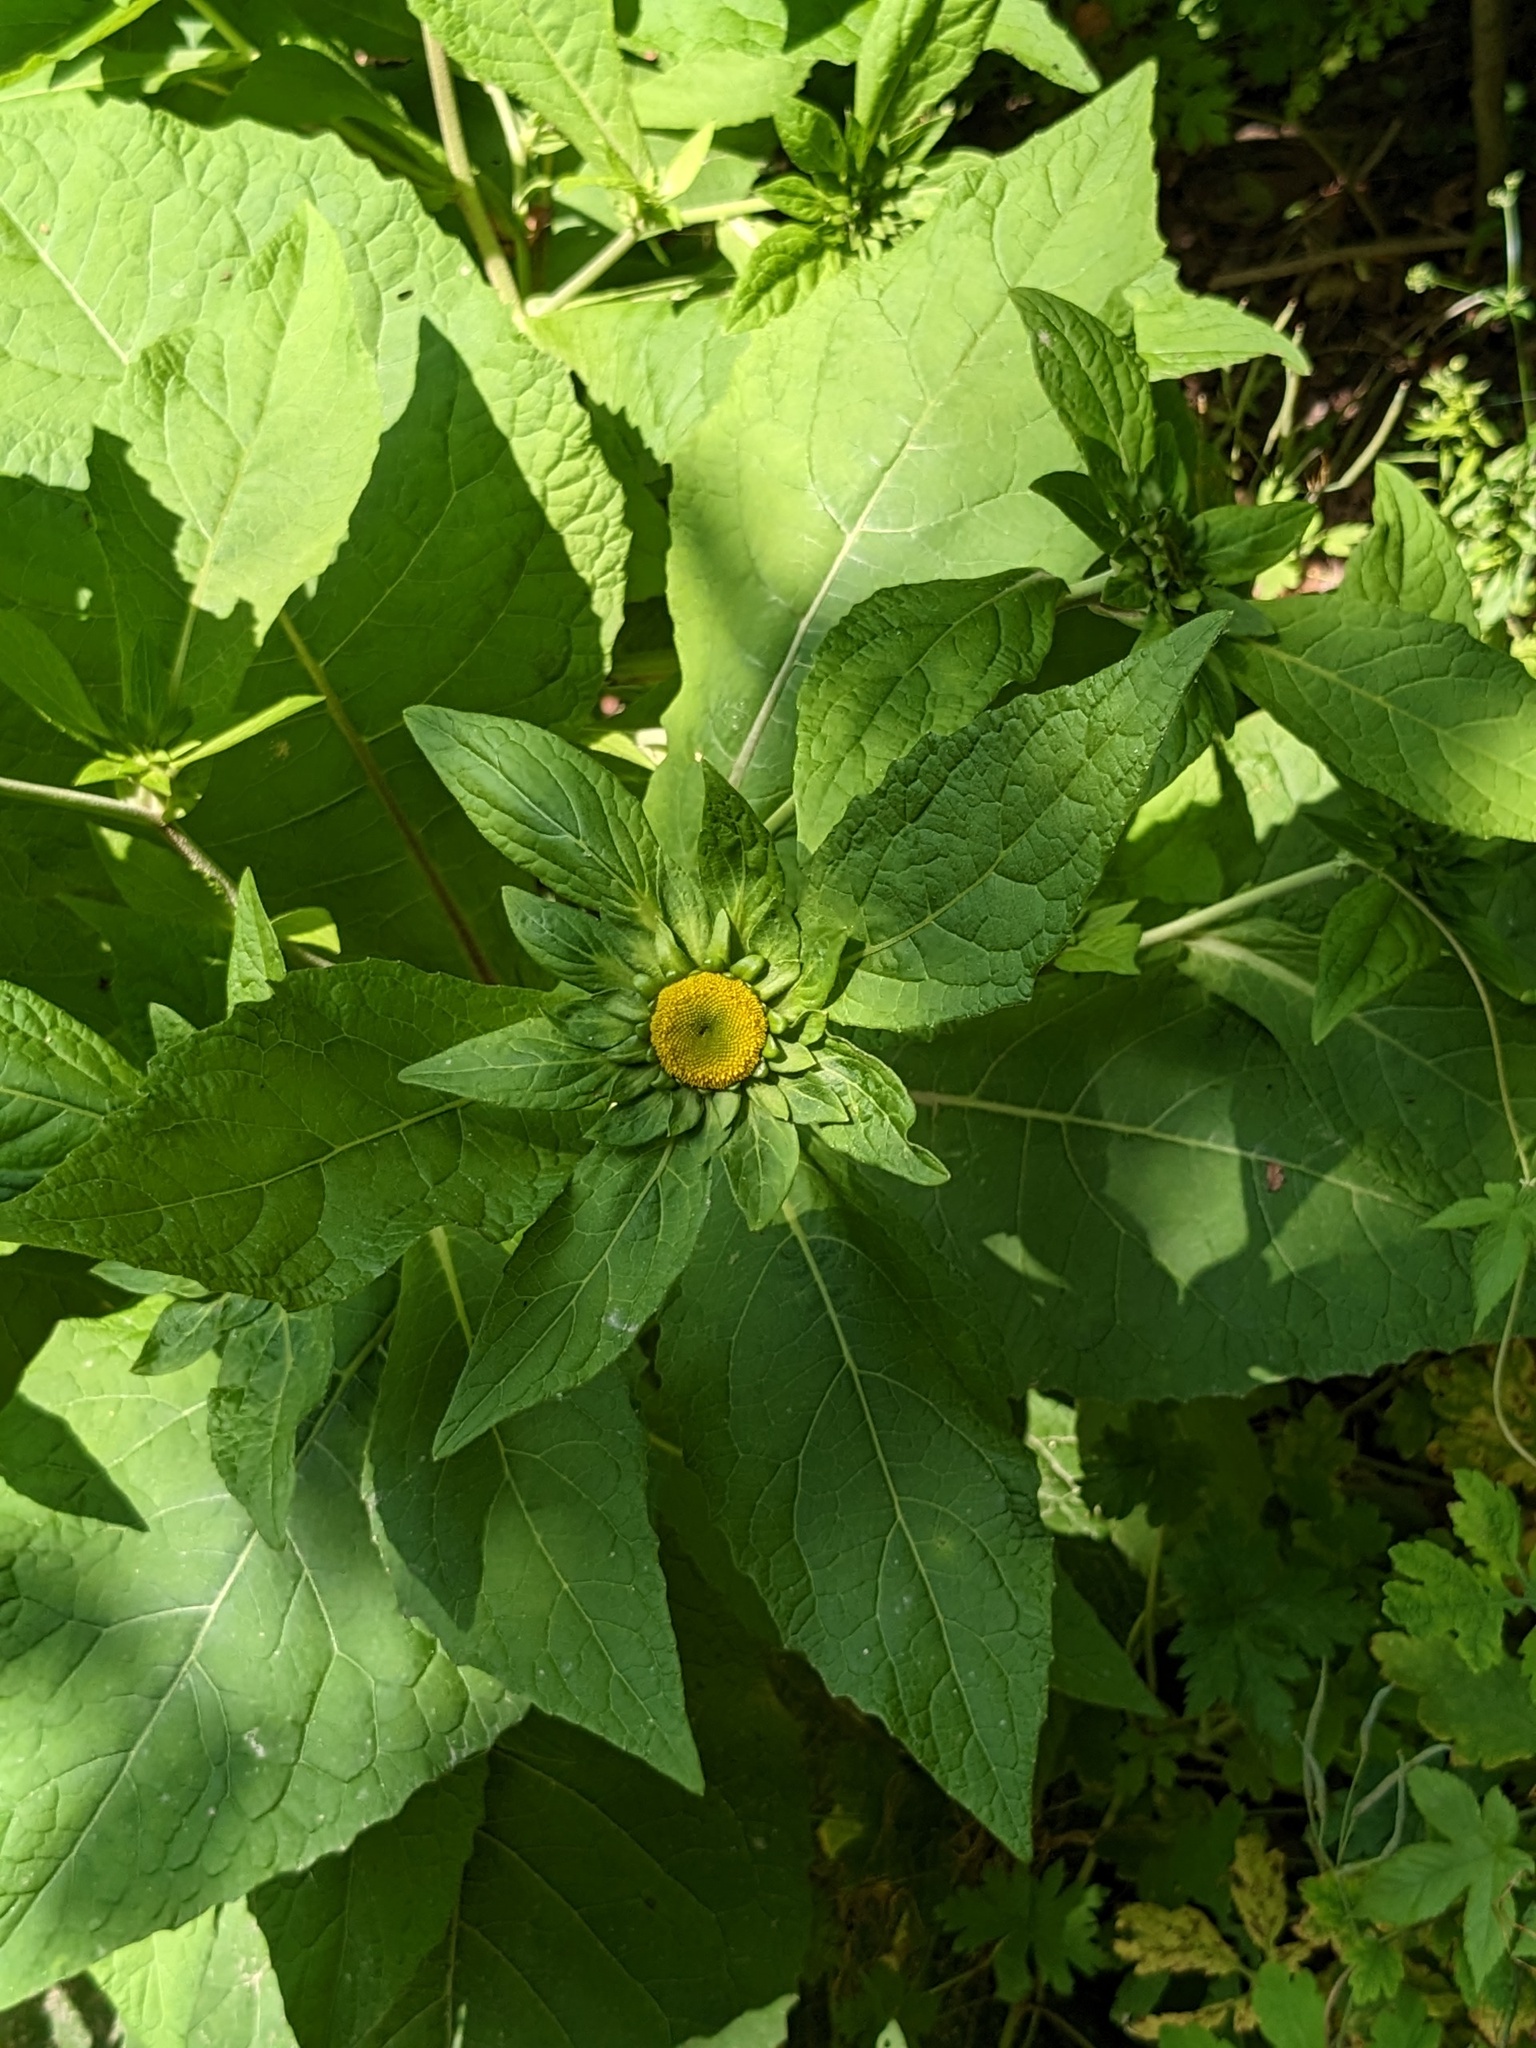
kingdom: Plantae
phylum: Tracheophyta
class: Magnoliopsida
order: Asterales
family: Asteraceae
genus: Carpesium
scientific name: Carpesium macrocephalum
